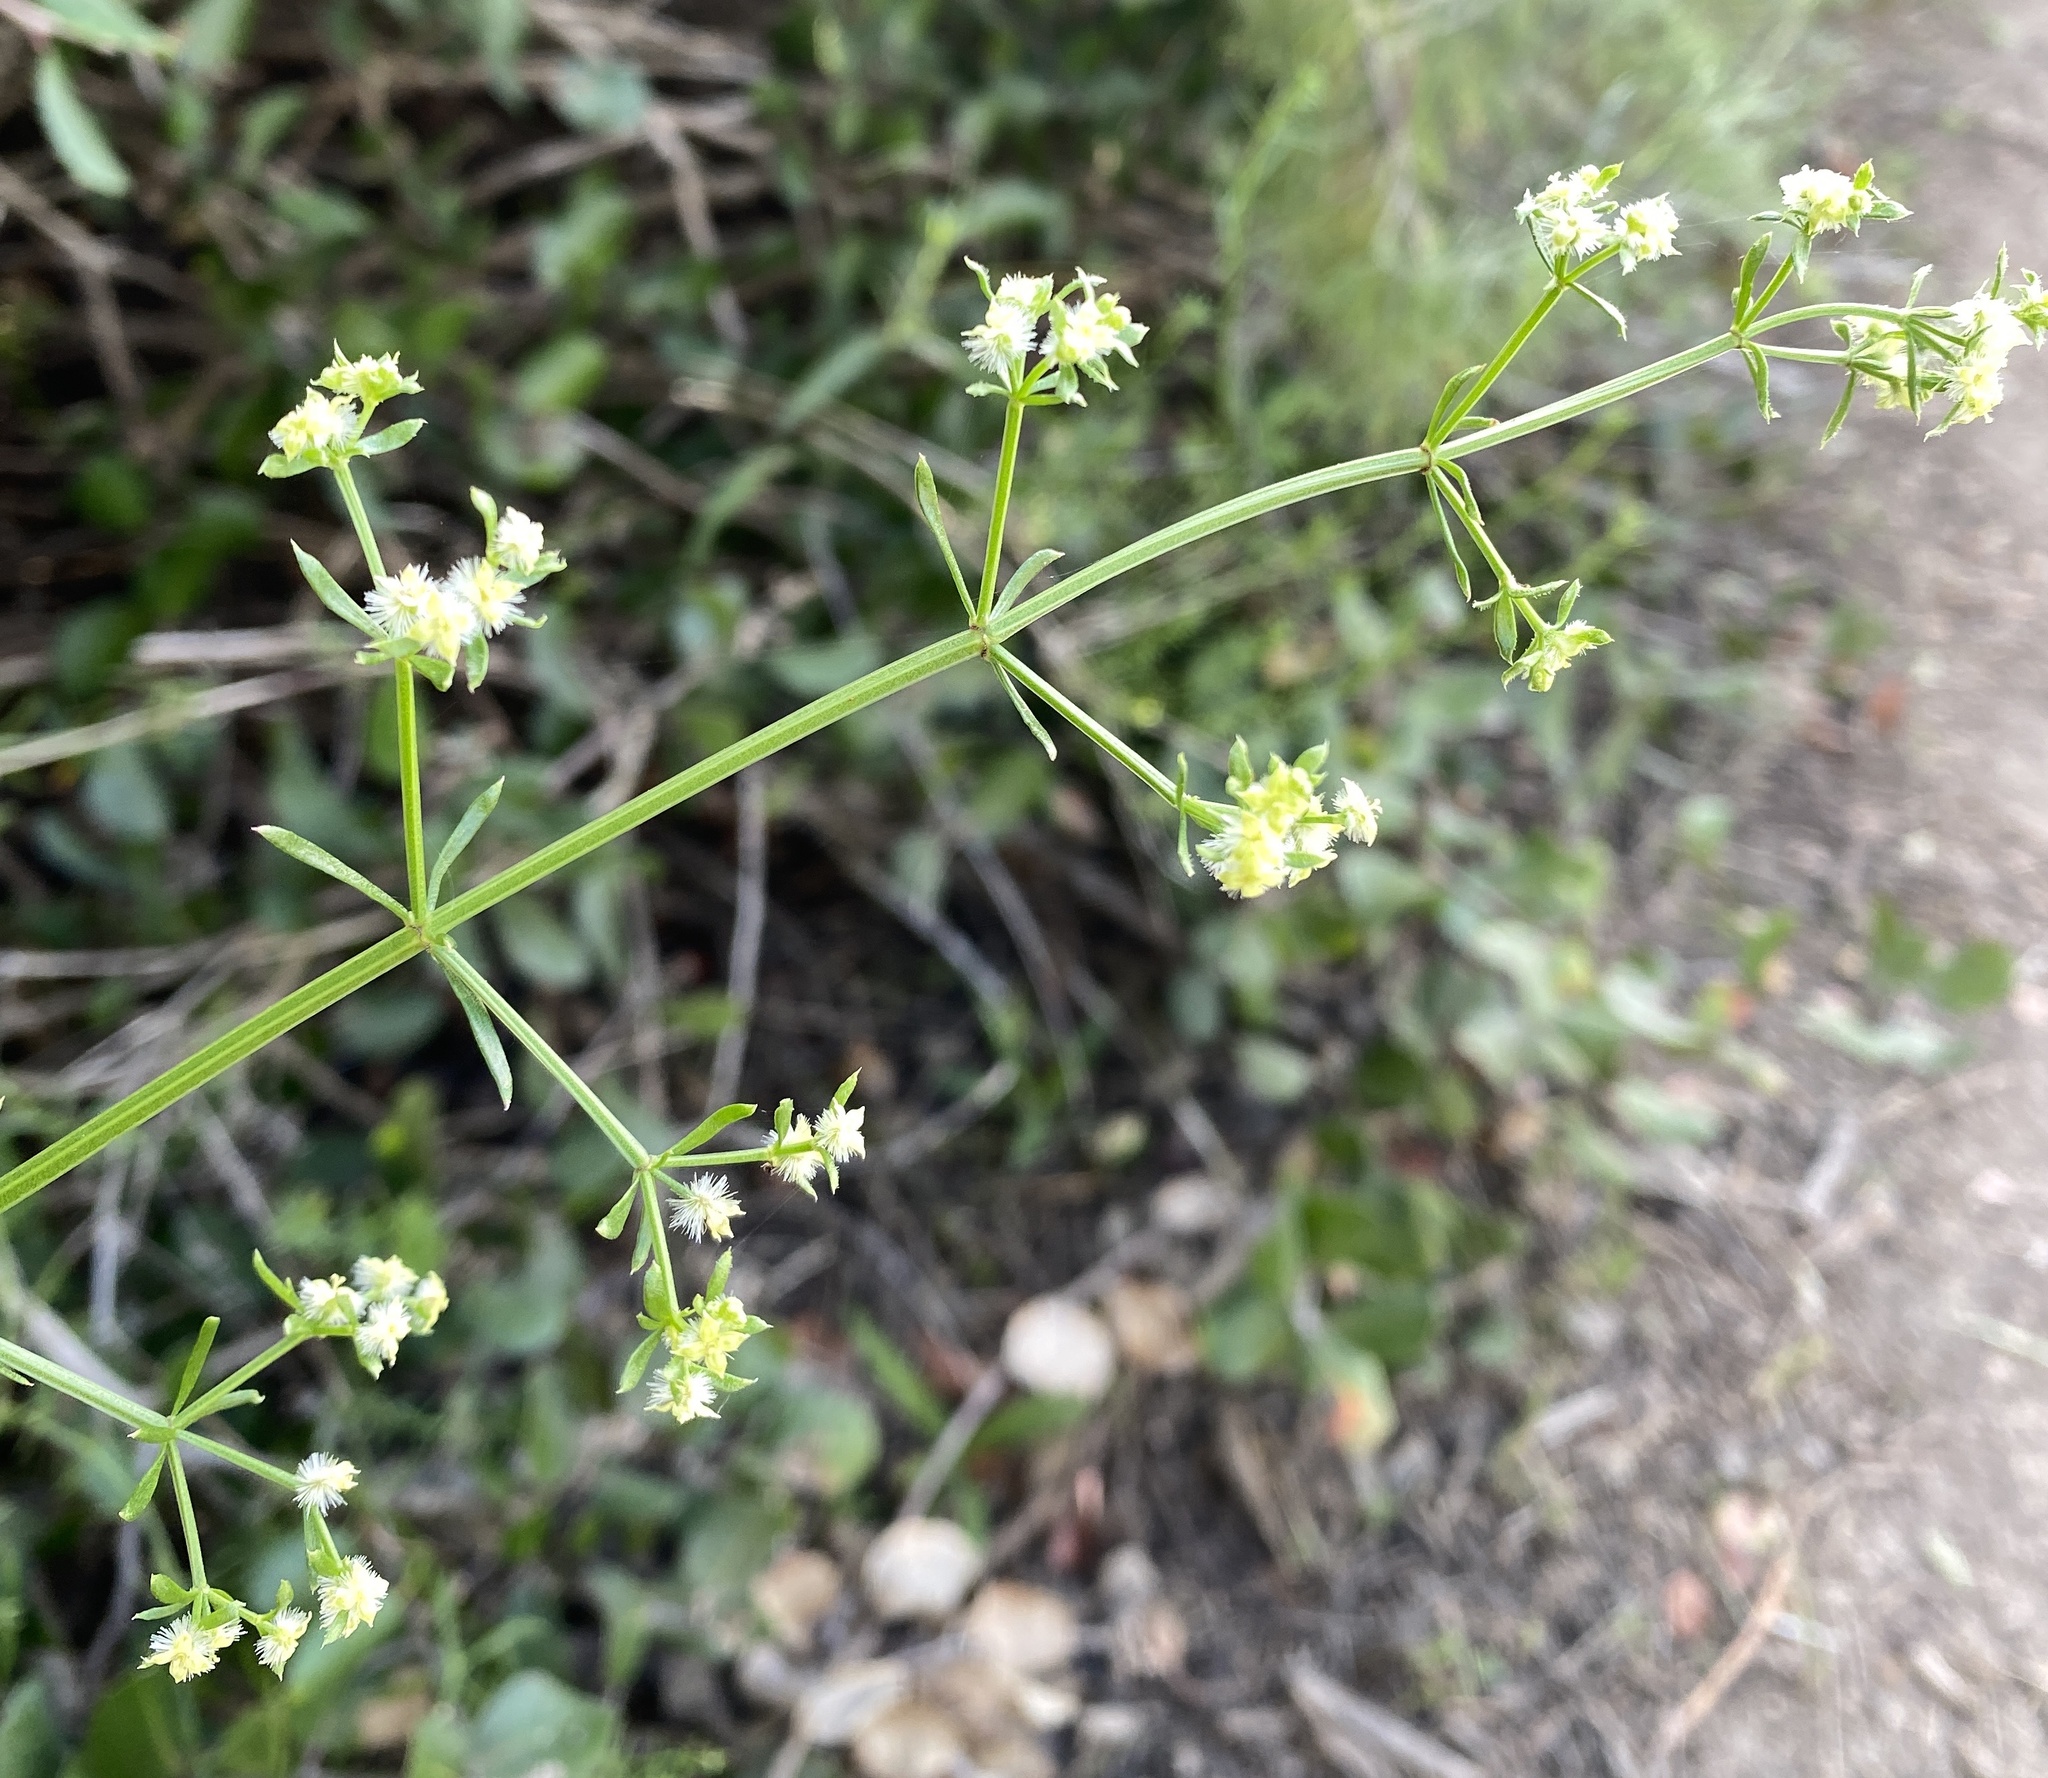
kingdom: Plantae
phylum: Tracheophyta
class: Magnoliopsida
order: Gentianales
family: Rubiaceae
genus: Galium
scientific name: Galium angustifolium
